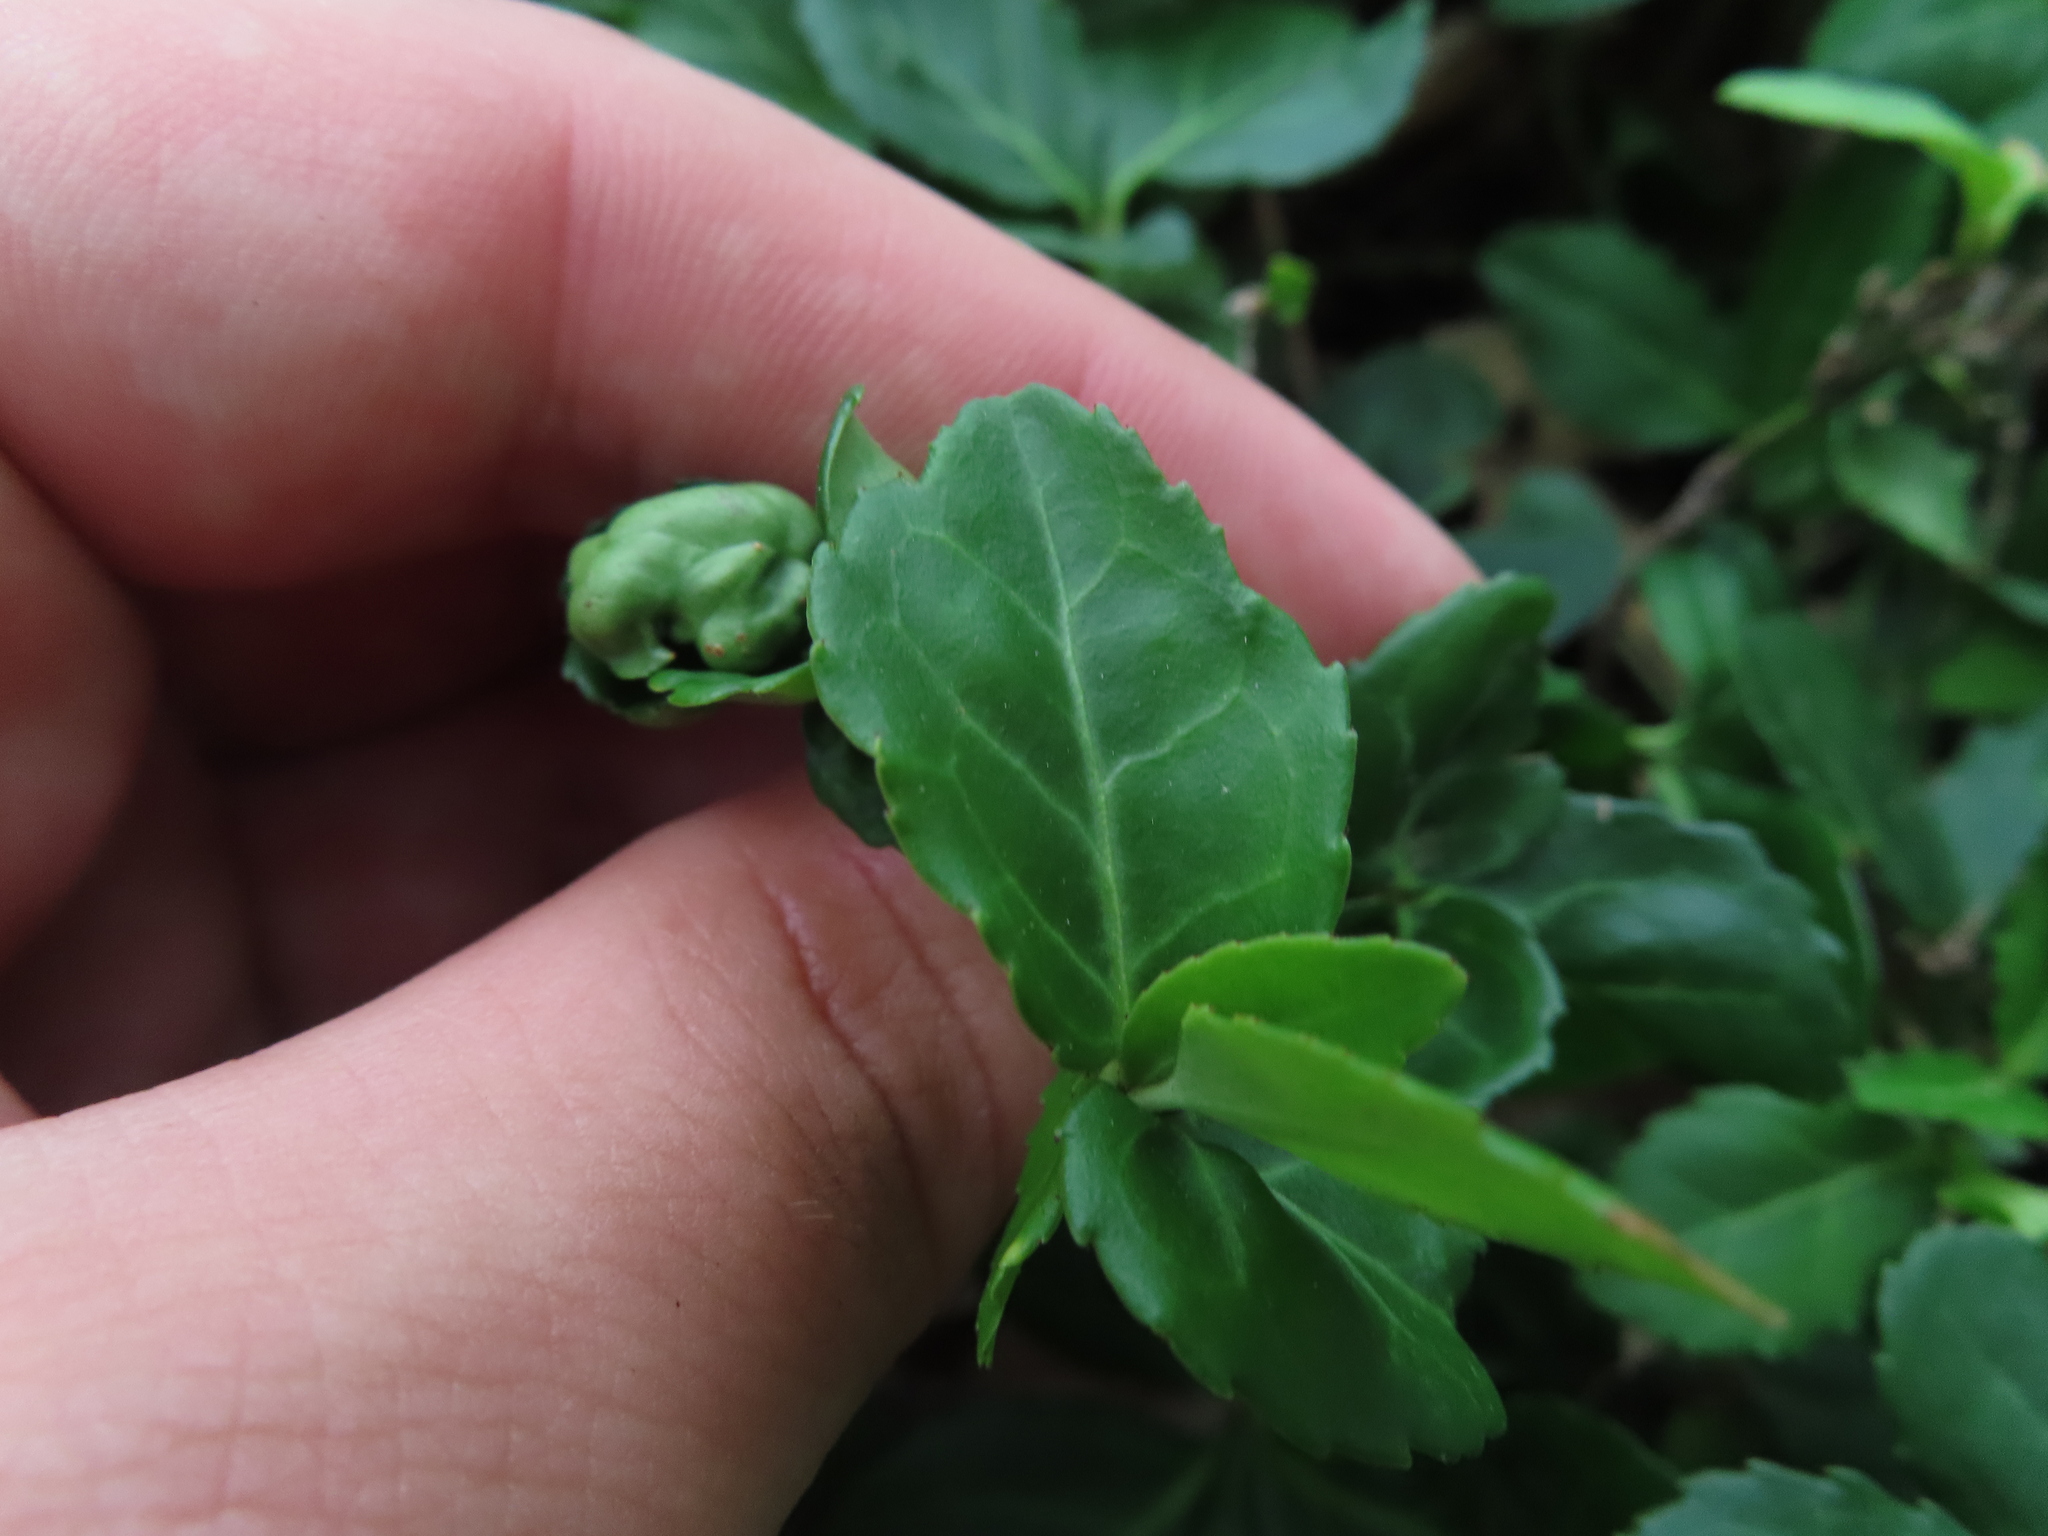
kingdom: Plantae
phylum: Tracheophyta
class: Magnoliopsida
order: Celastrales
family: Celastraceae
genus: Euonymus
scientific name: Euonymus fortunei
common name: Climbing euonymus
